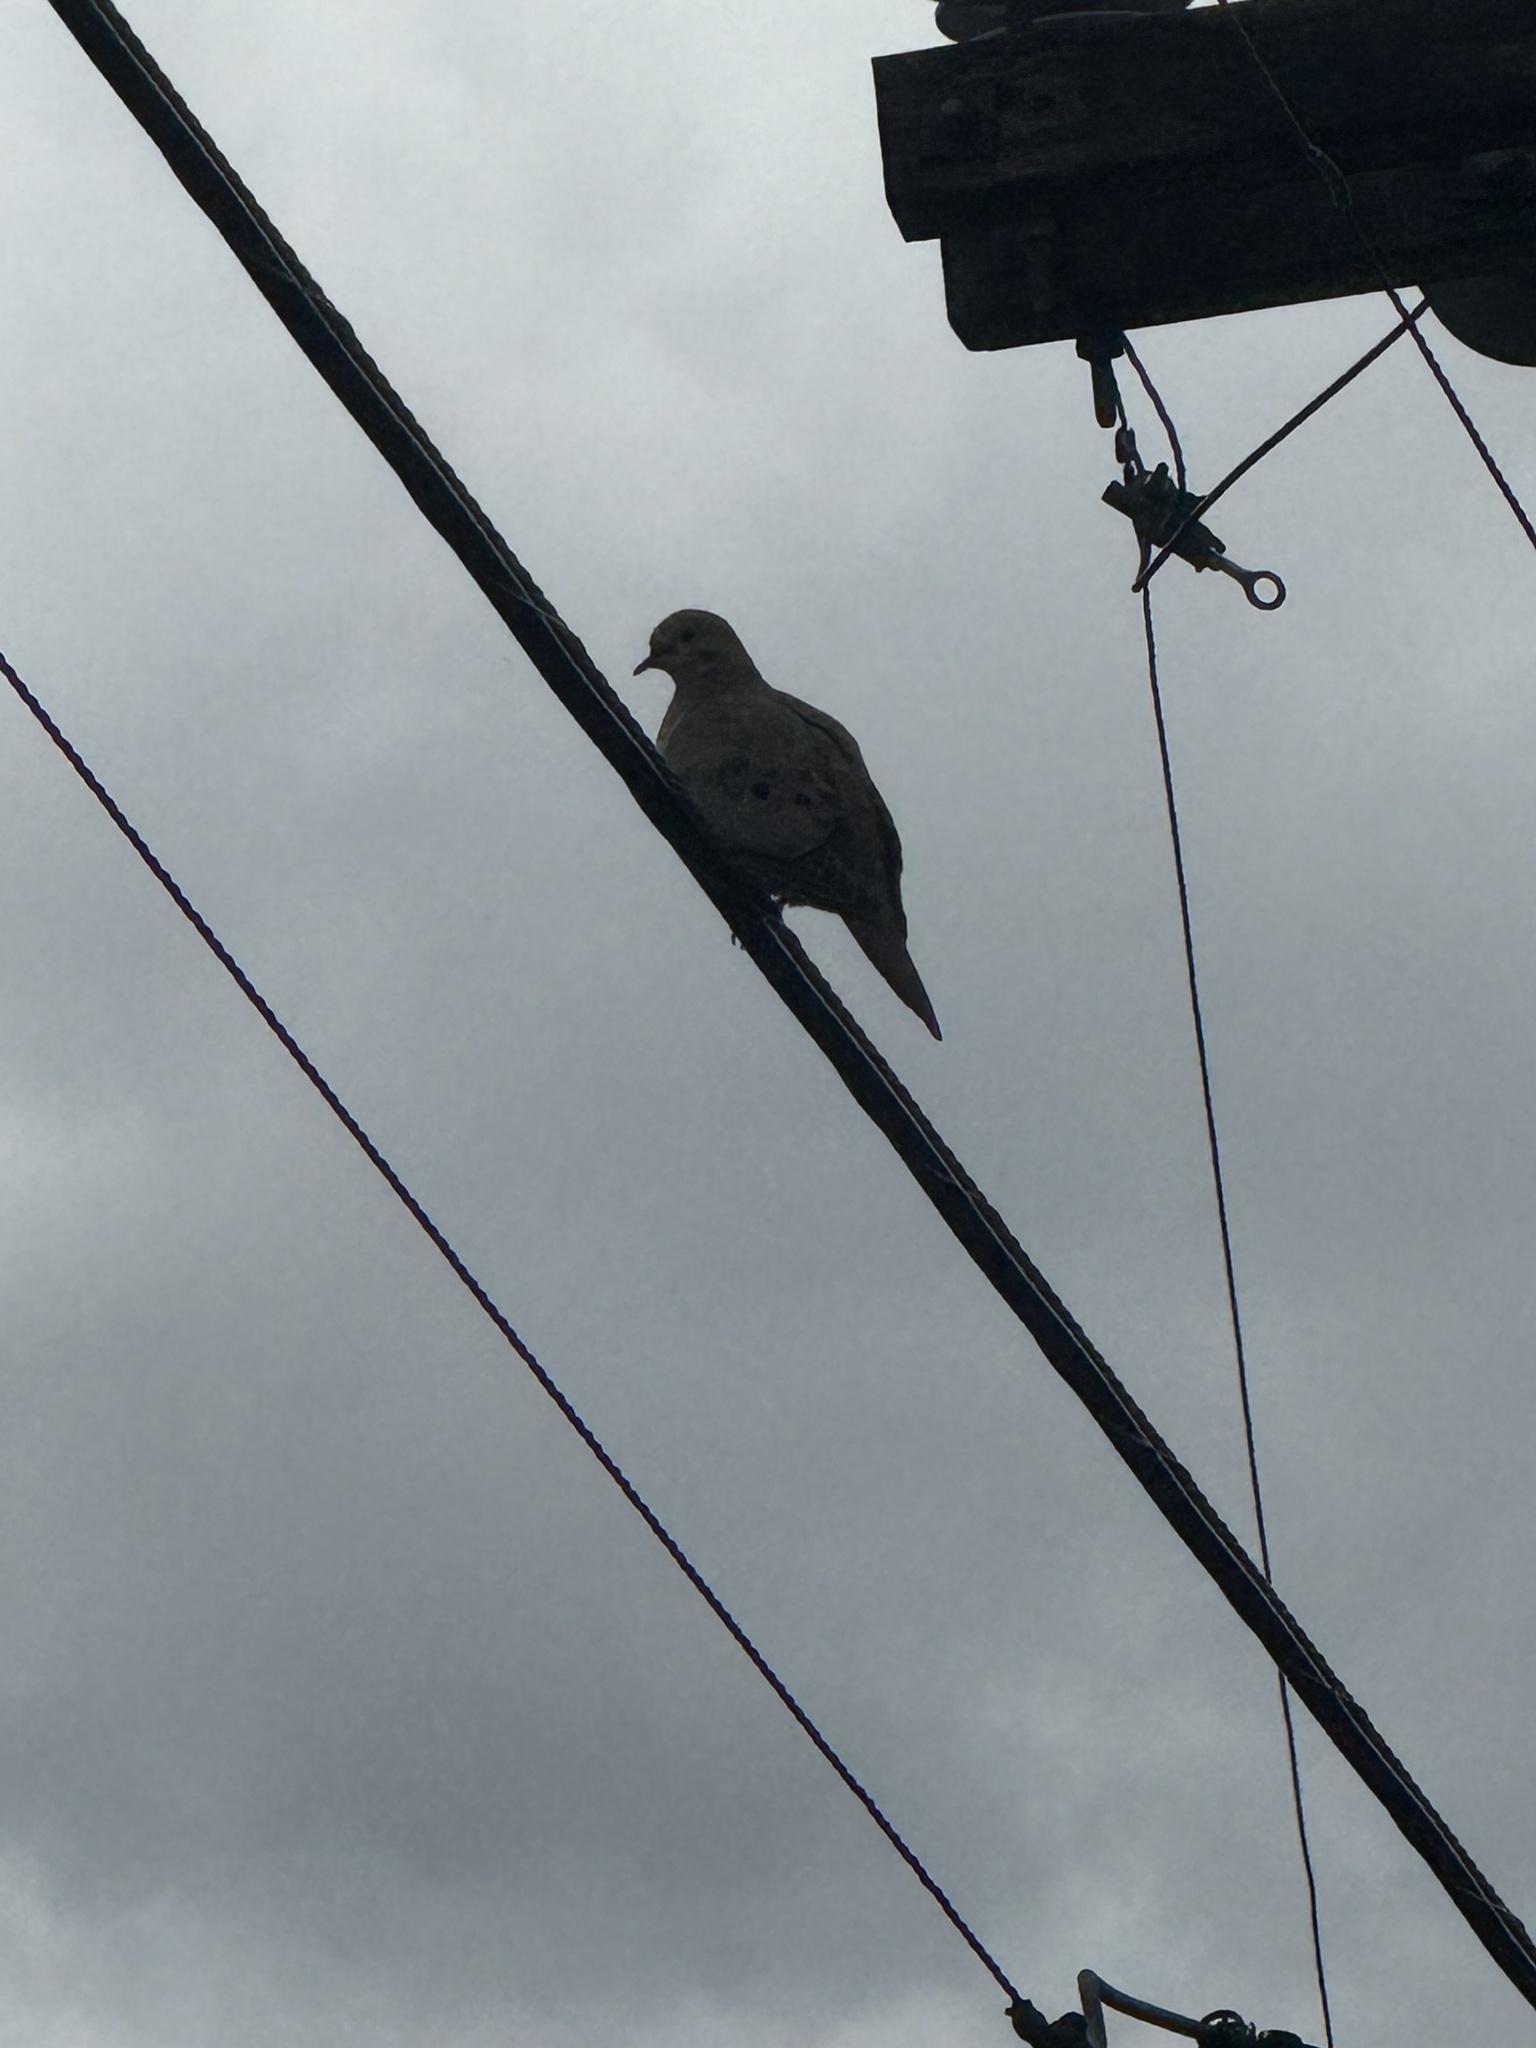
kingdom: Animalia
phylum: Chordata
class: Aves
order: Columbiformes
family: Columbidae
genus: Zenaida
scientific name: Zenaida macroura
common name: Mourning dove
